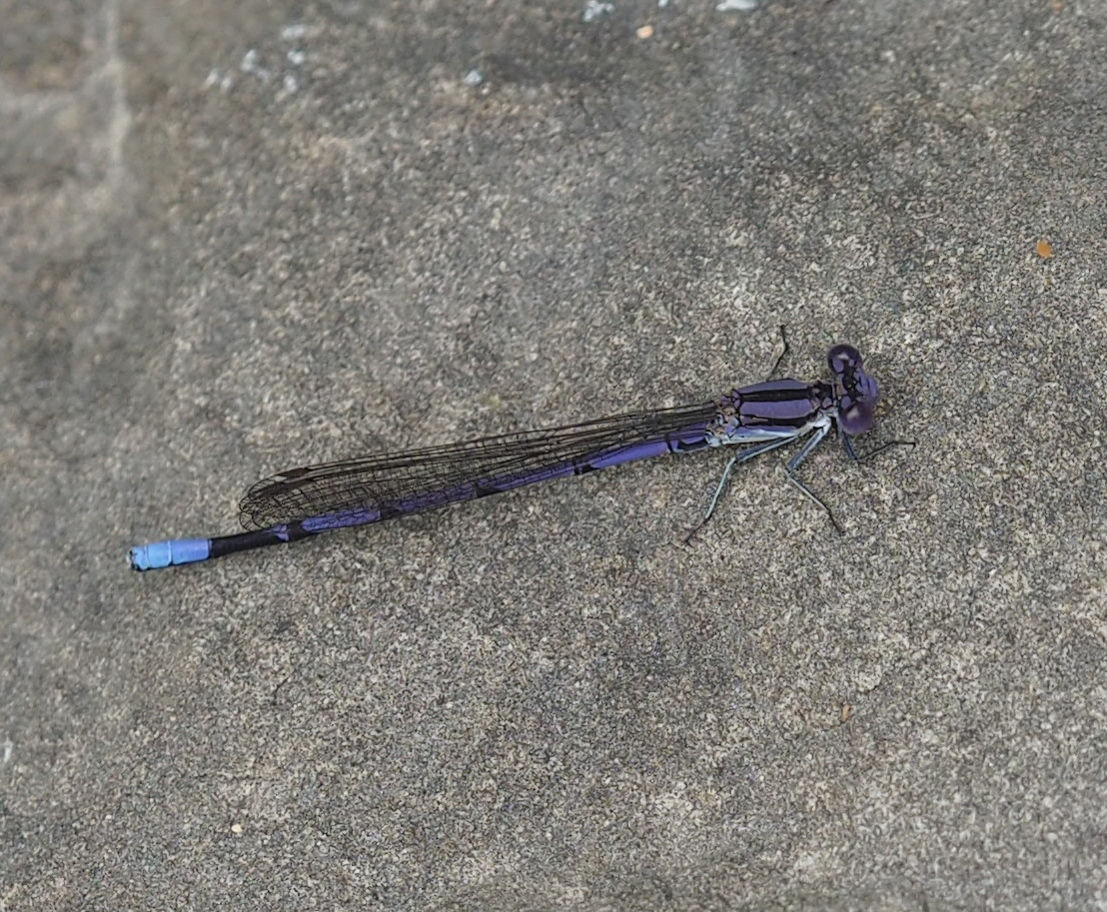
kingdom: Animalia
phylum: Arthropoda
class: Insecta
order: Odonata
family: Coenagrionidae
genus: Argia
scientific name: Argia fumipennis
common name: Variable dancer
